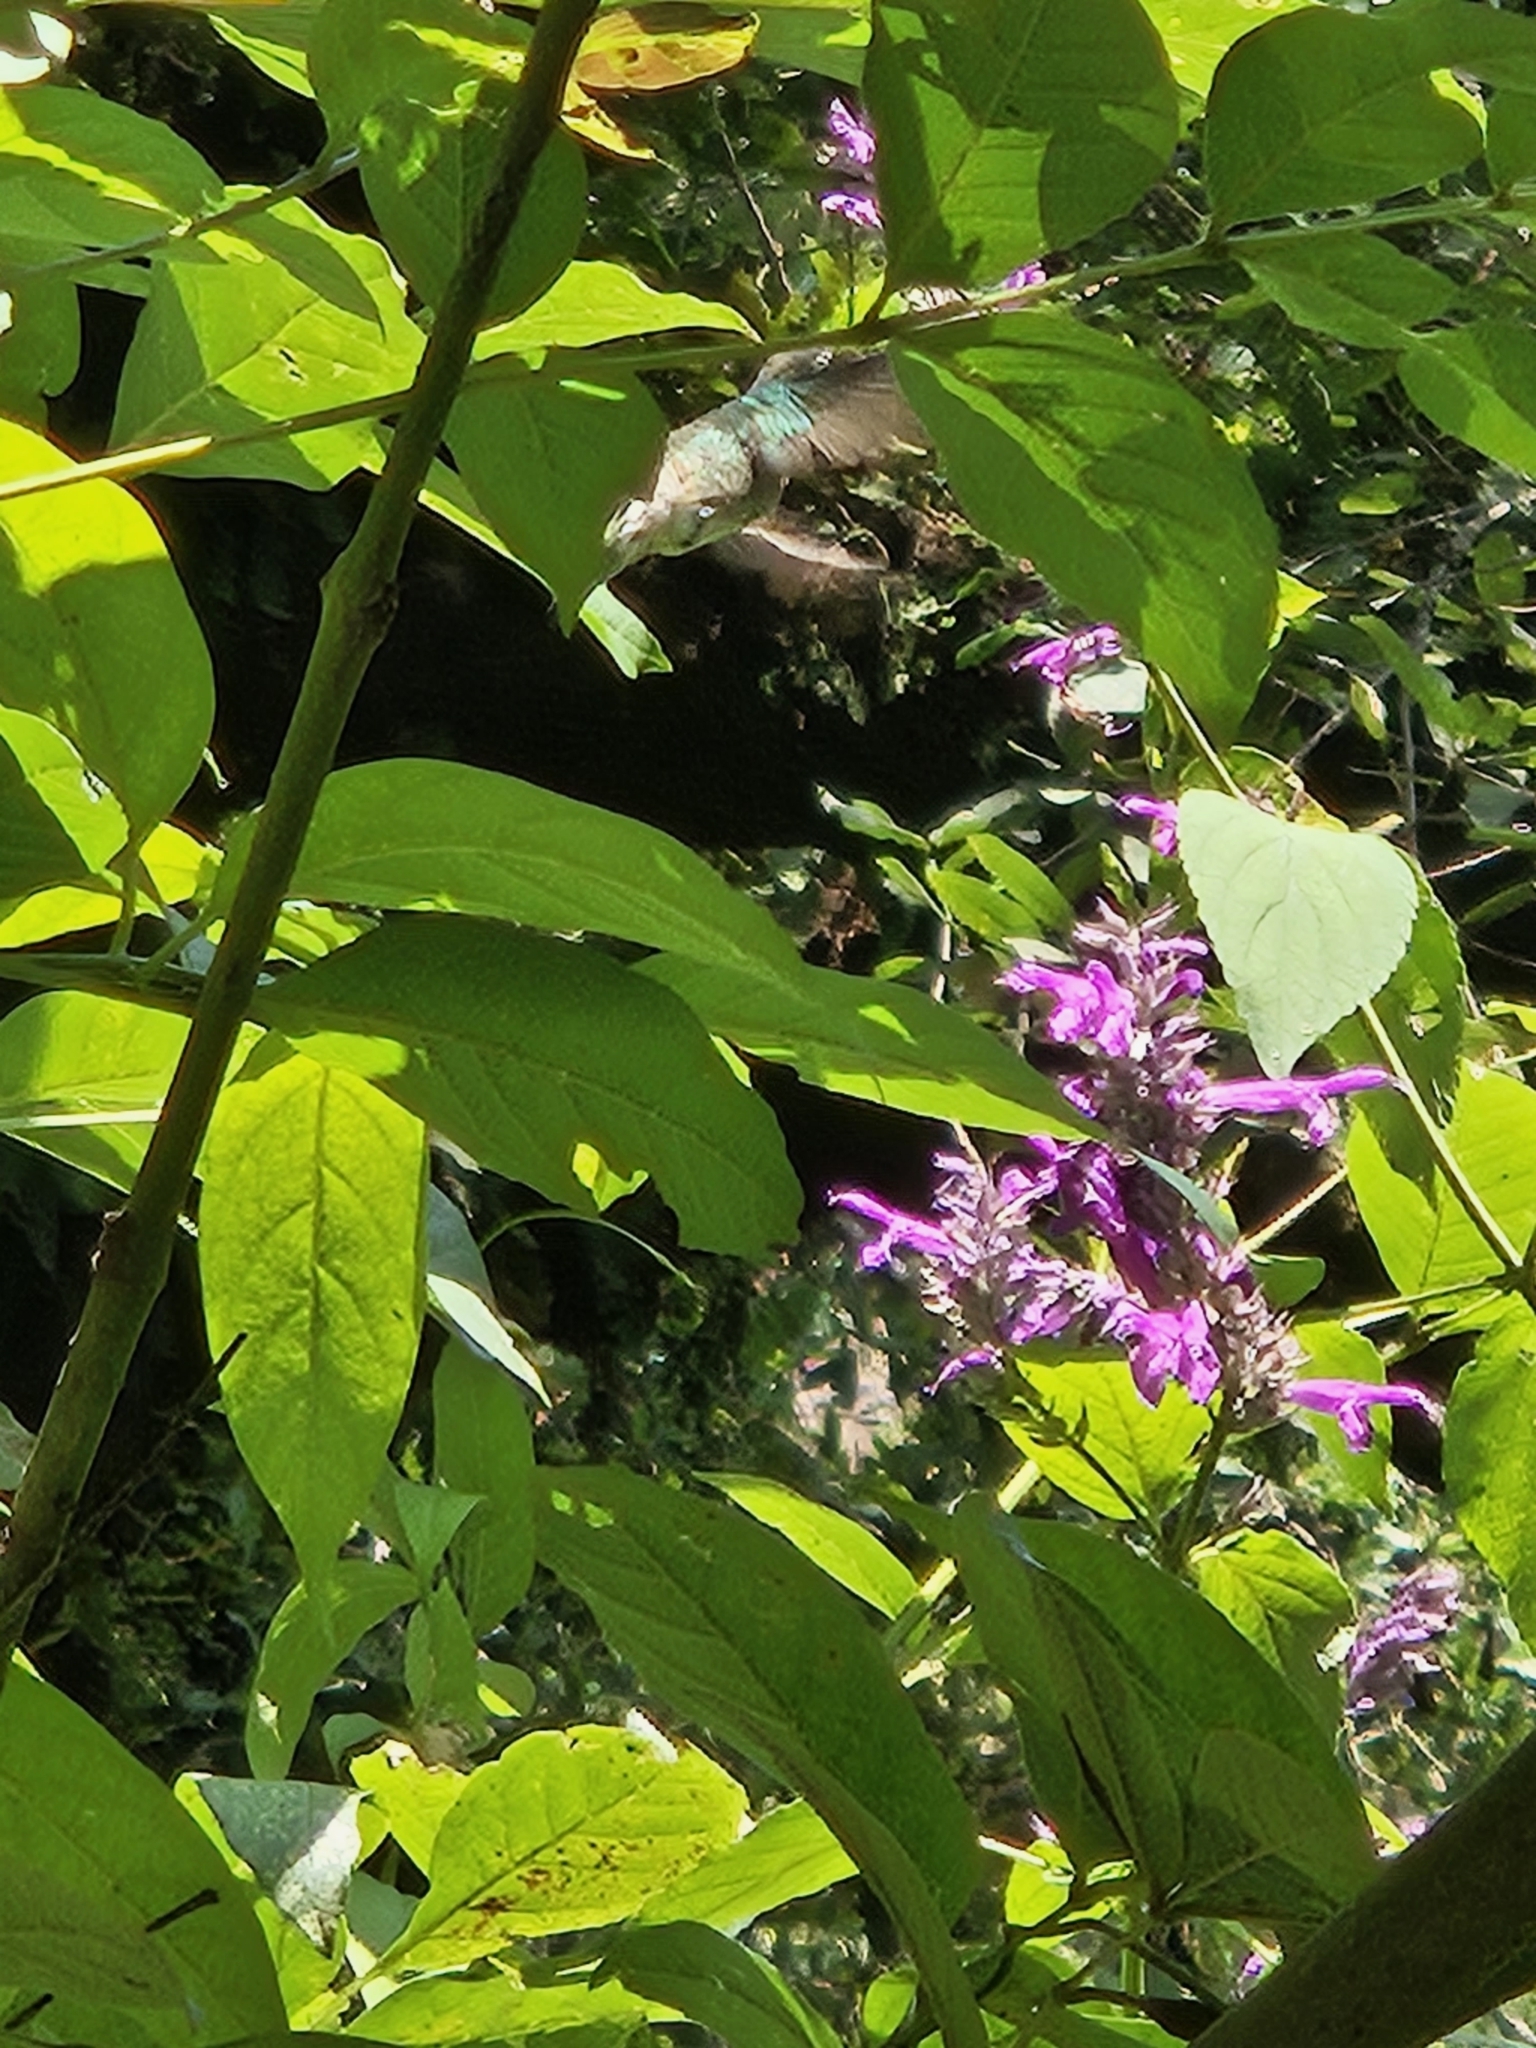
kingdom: Plantae
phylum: Tracheophyta
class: Magnoliopsida
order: Lamiales
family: Lamiaceae
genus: Salvia
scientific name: Salvia purpurea
